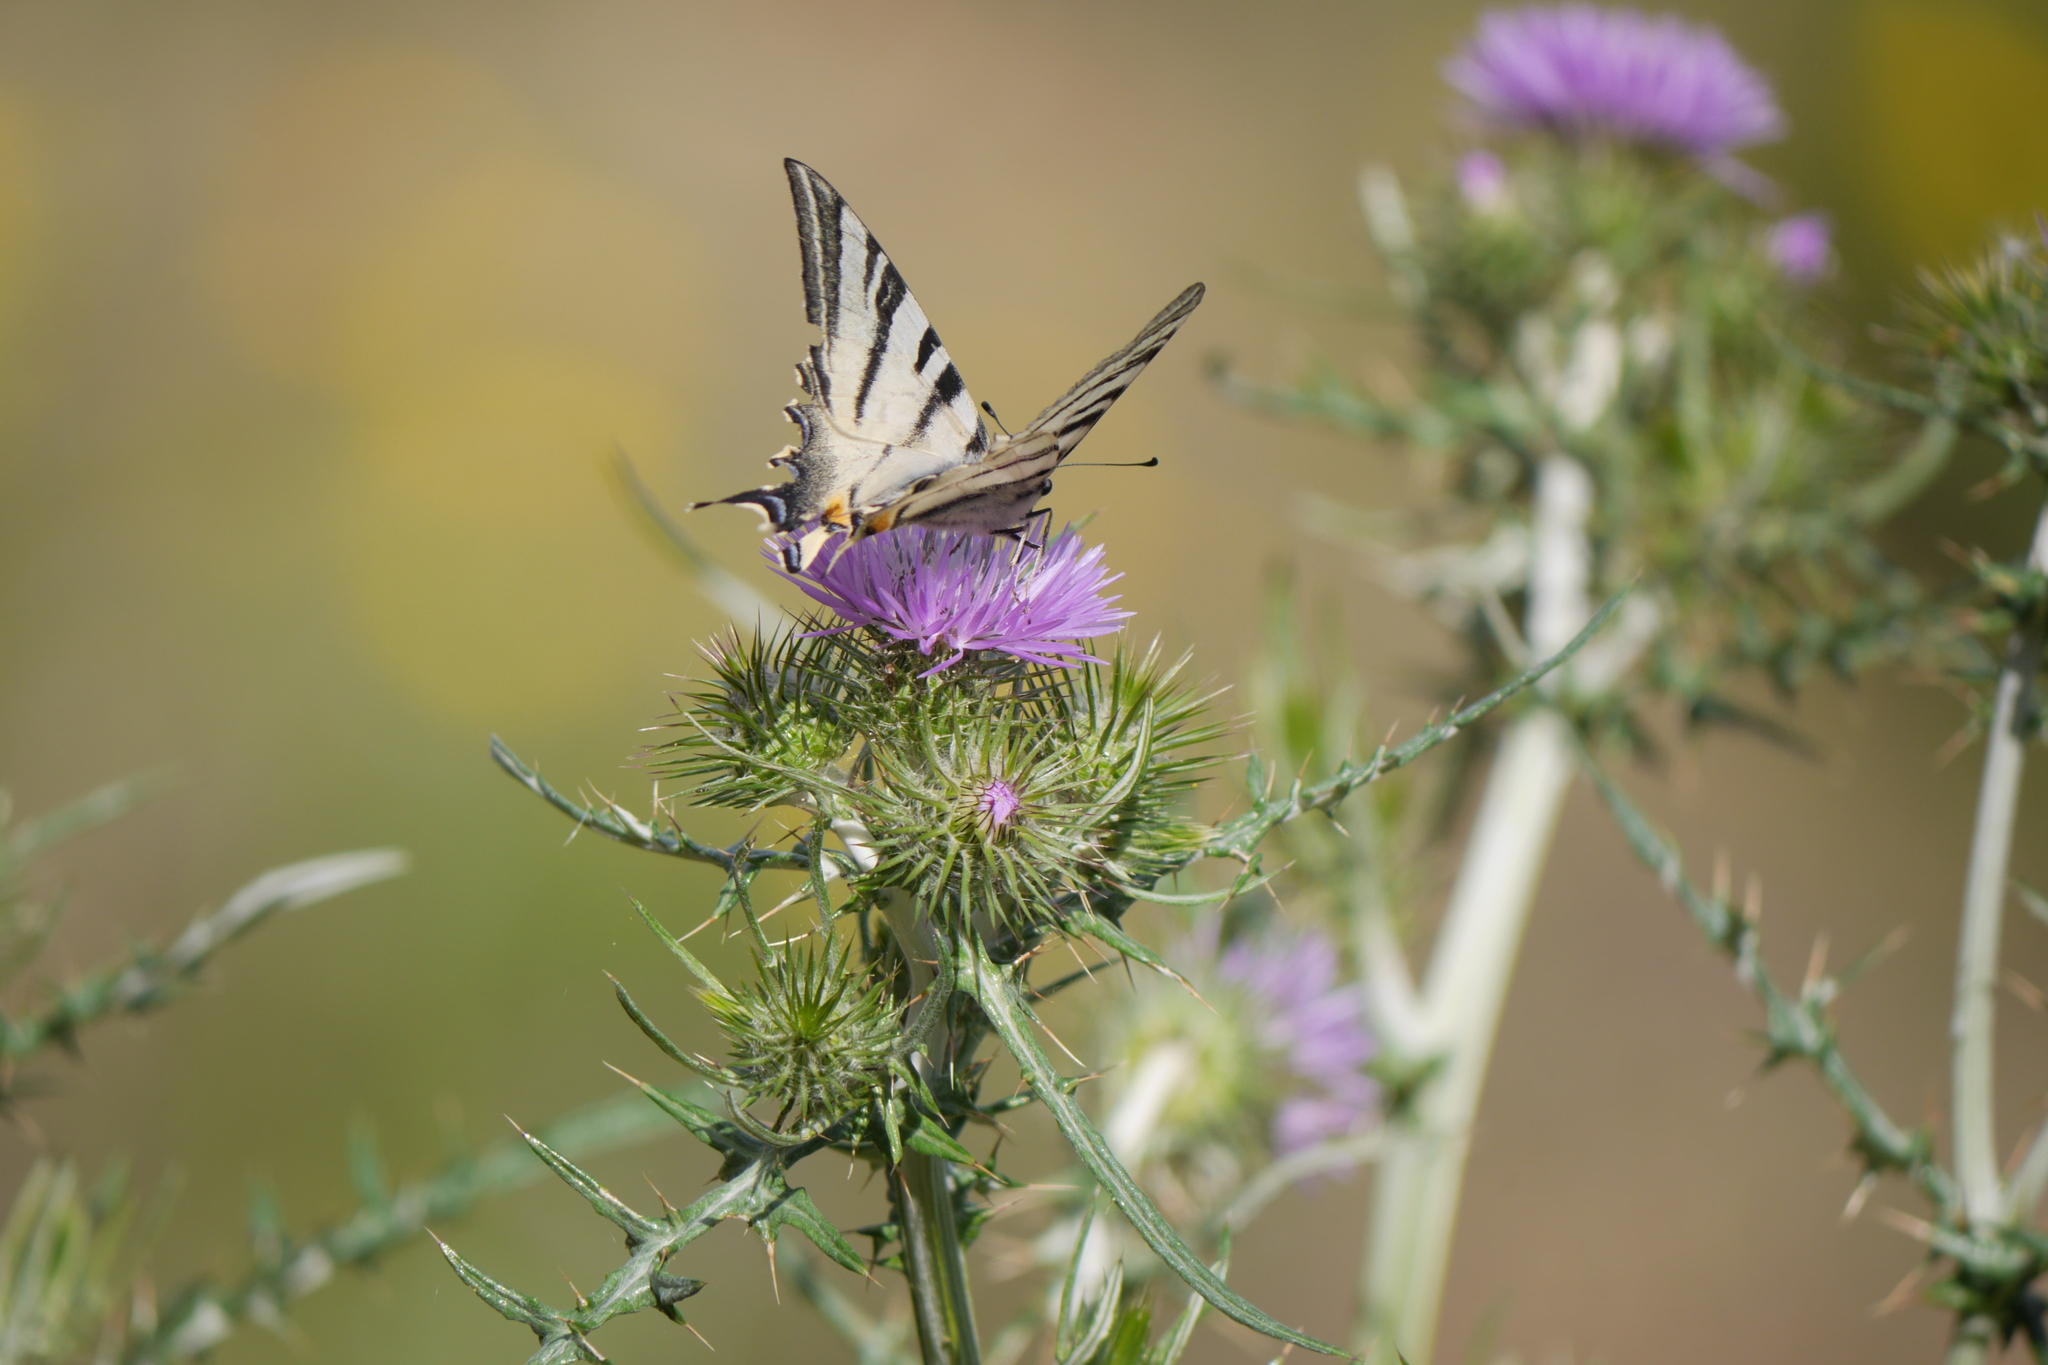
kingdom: Animalia
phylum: Arthropoda
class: Insecta
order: Lepidoptera
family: Papilionidae
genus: Iphiclides
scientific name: Iphiclides podalirius
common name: Scarce swallowtail
